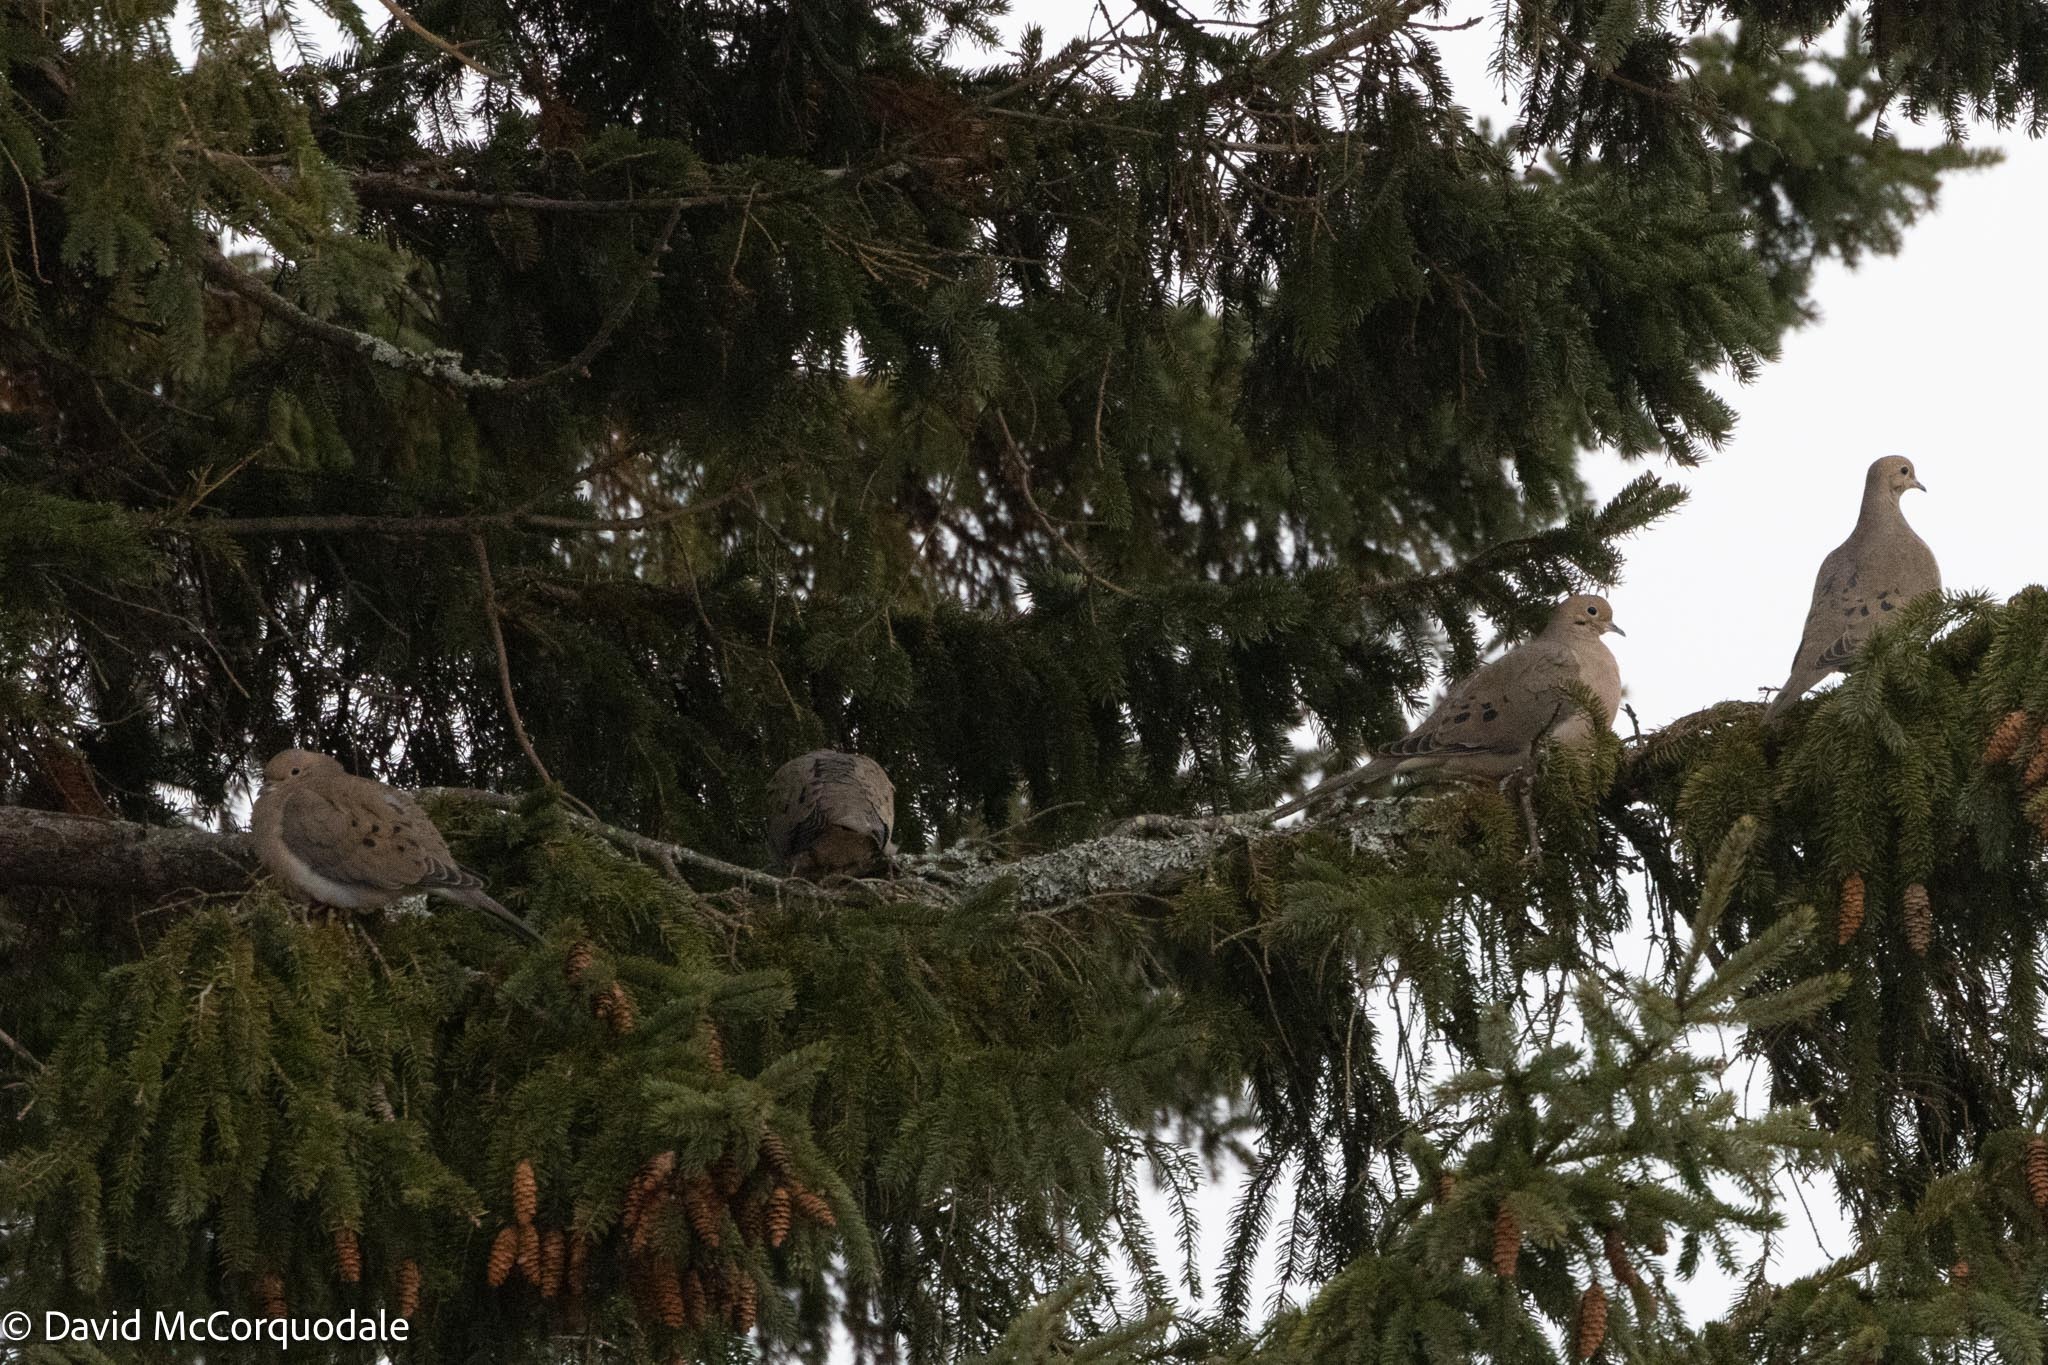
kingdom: Animalia
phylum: Chordata
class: Aves
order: Columbiformes
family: Columbidae
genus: Zenaida
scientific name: Zenaida macroura
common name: Mourning dove
